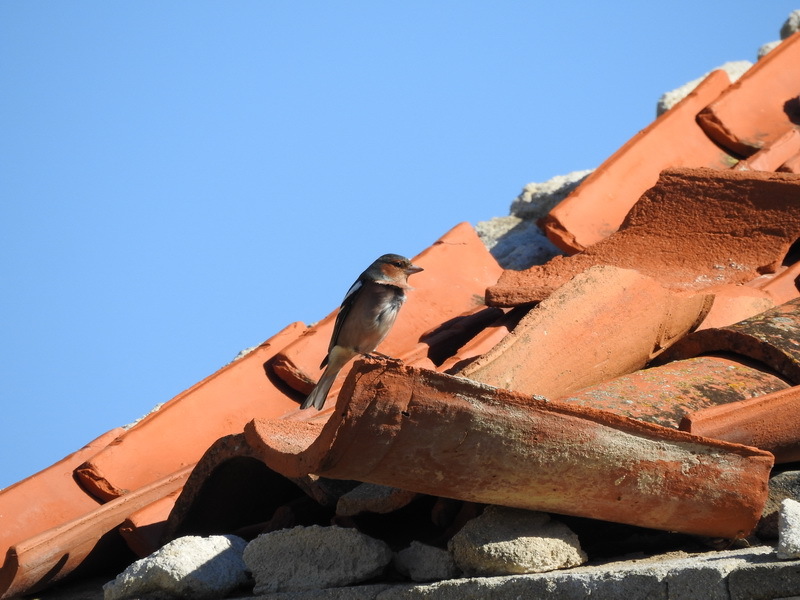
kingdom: Animalia
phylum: Chordata
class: Aves
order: Passeriformes
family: Fringillidae
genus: Fringilla
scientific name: Fringilla coelebs
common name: Common chaffinch
